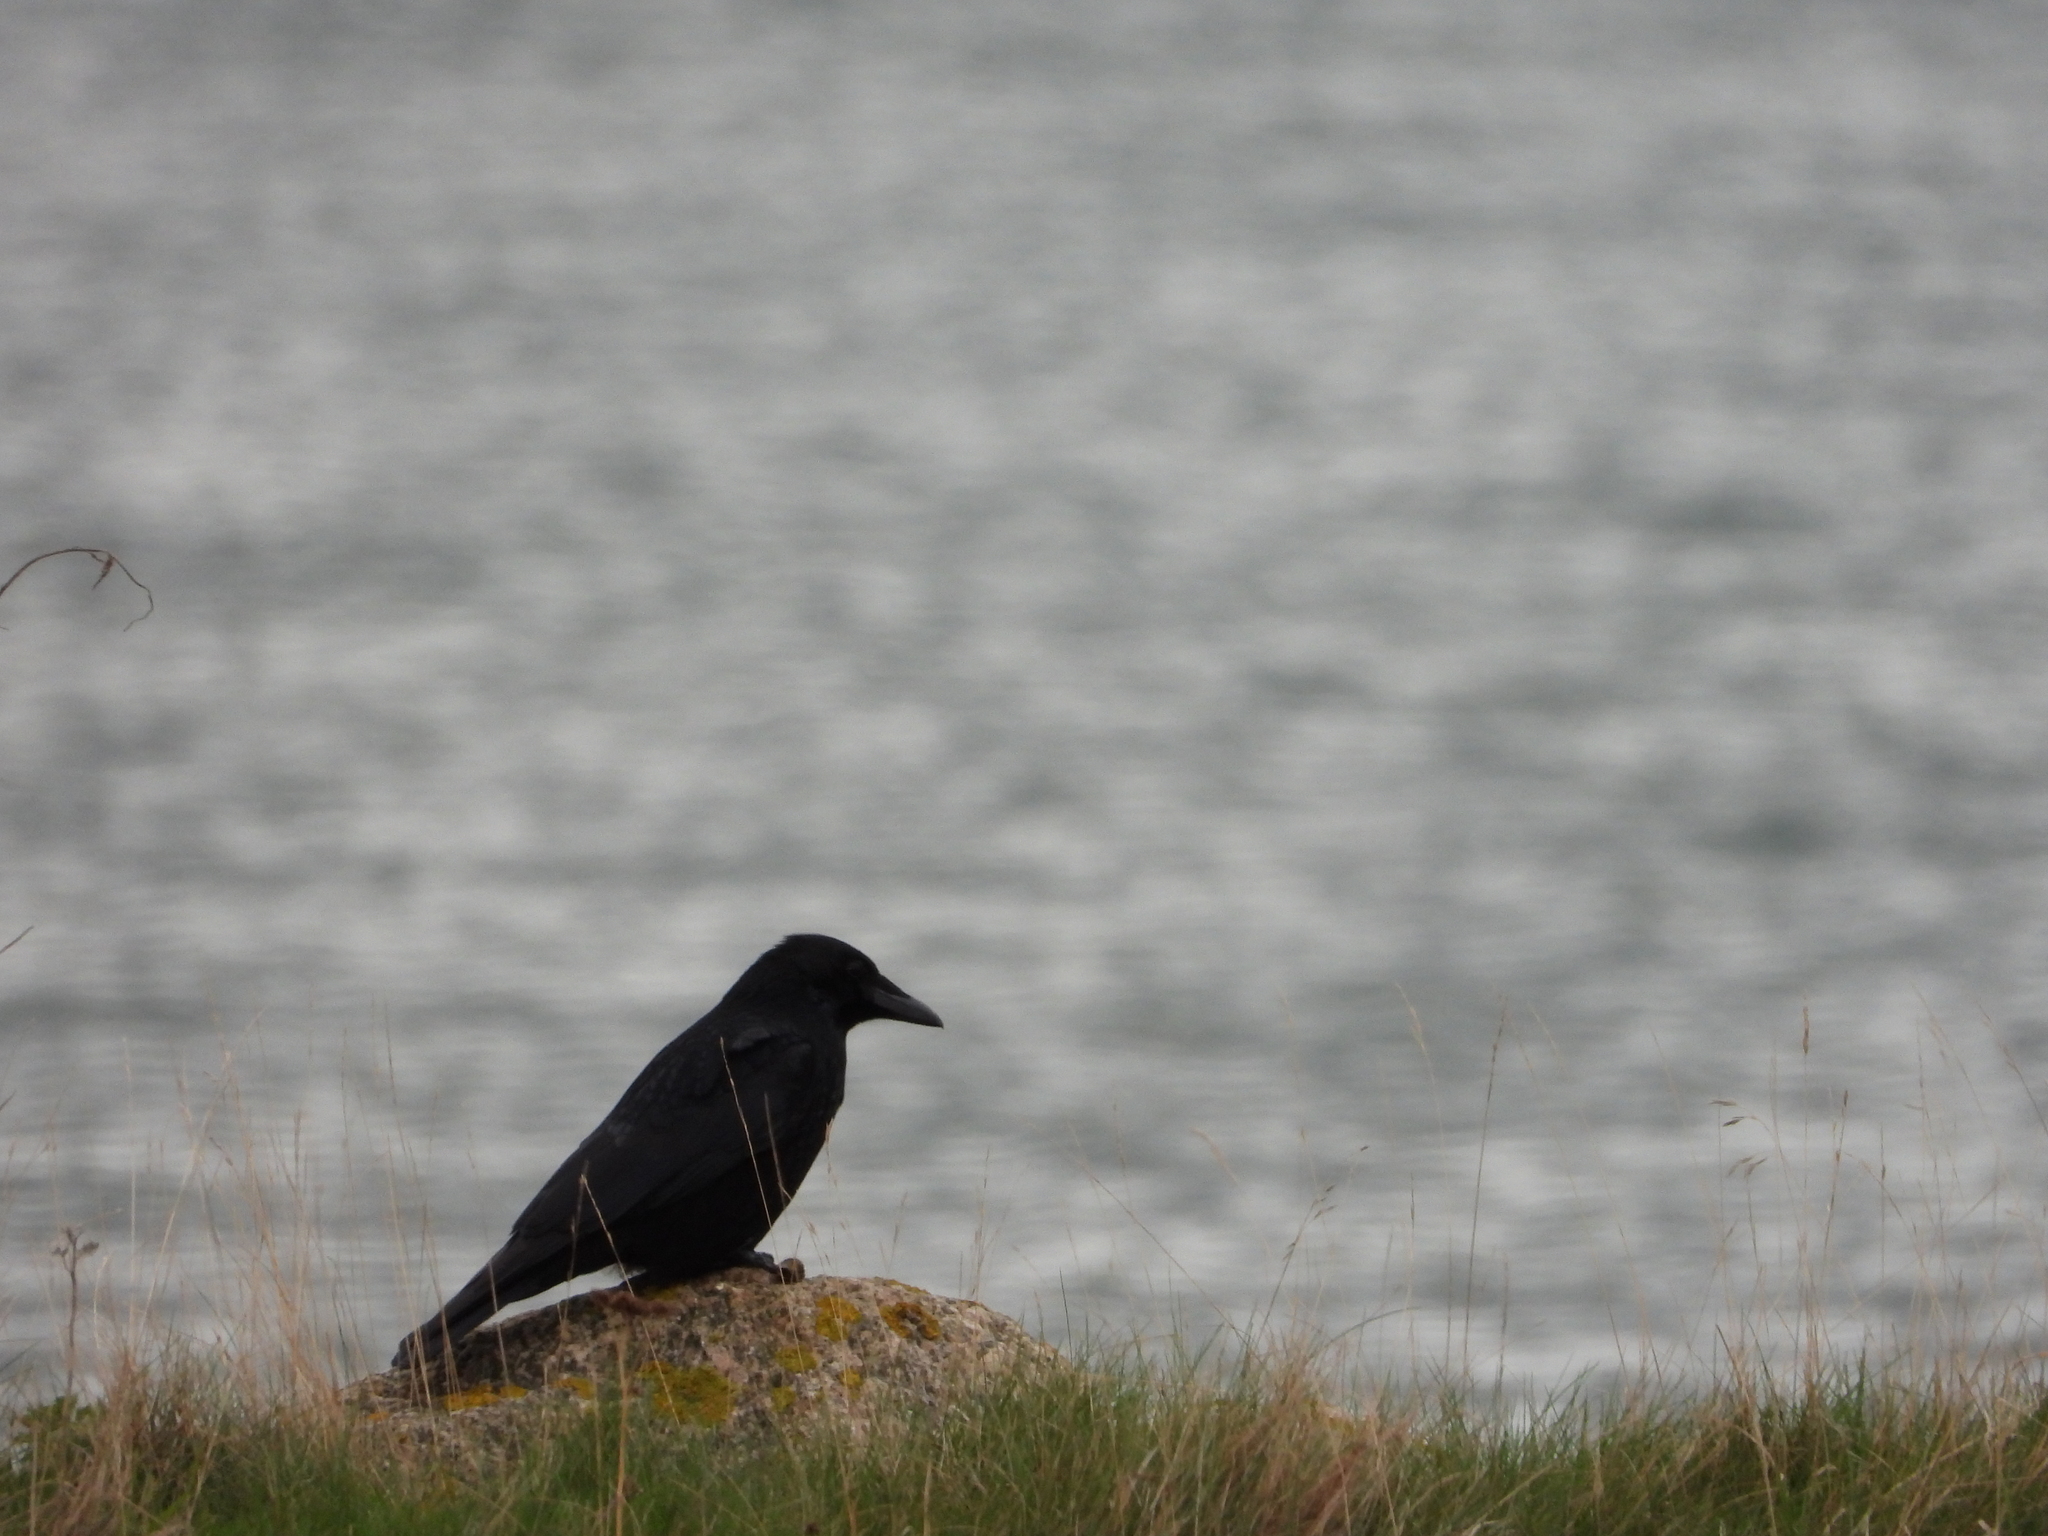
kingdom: Animalia
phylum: Chordata
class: Aves
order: Passeriformes
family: Corvidae
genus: Corvus
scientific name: Corvus corone
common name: Carrion crow
